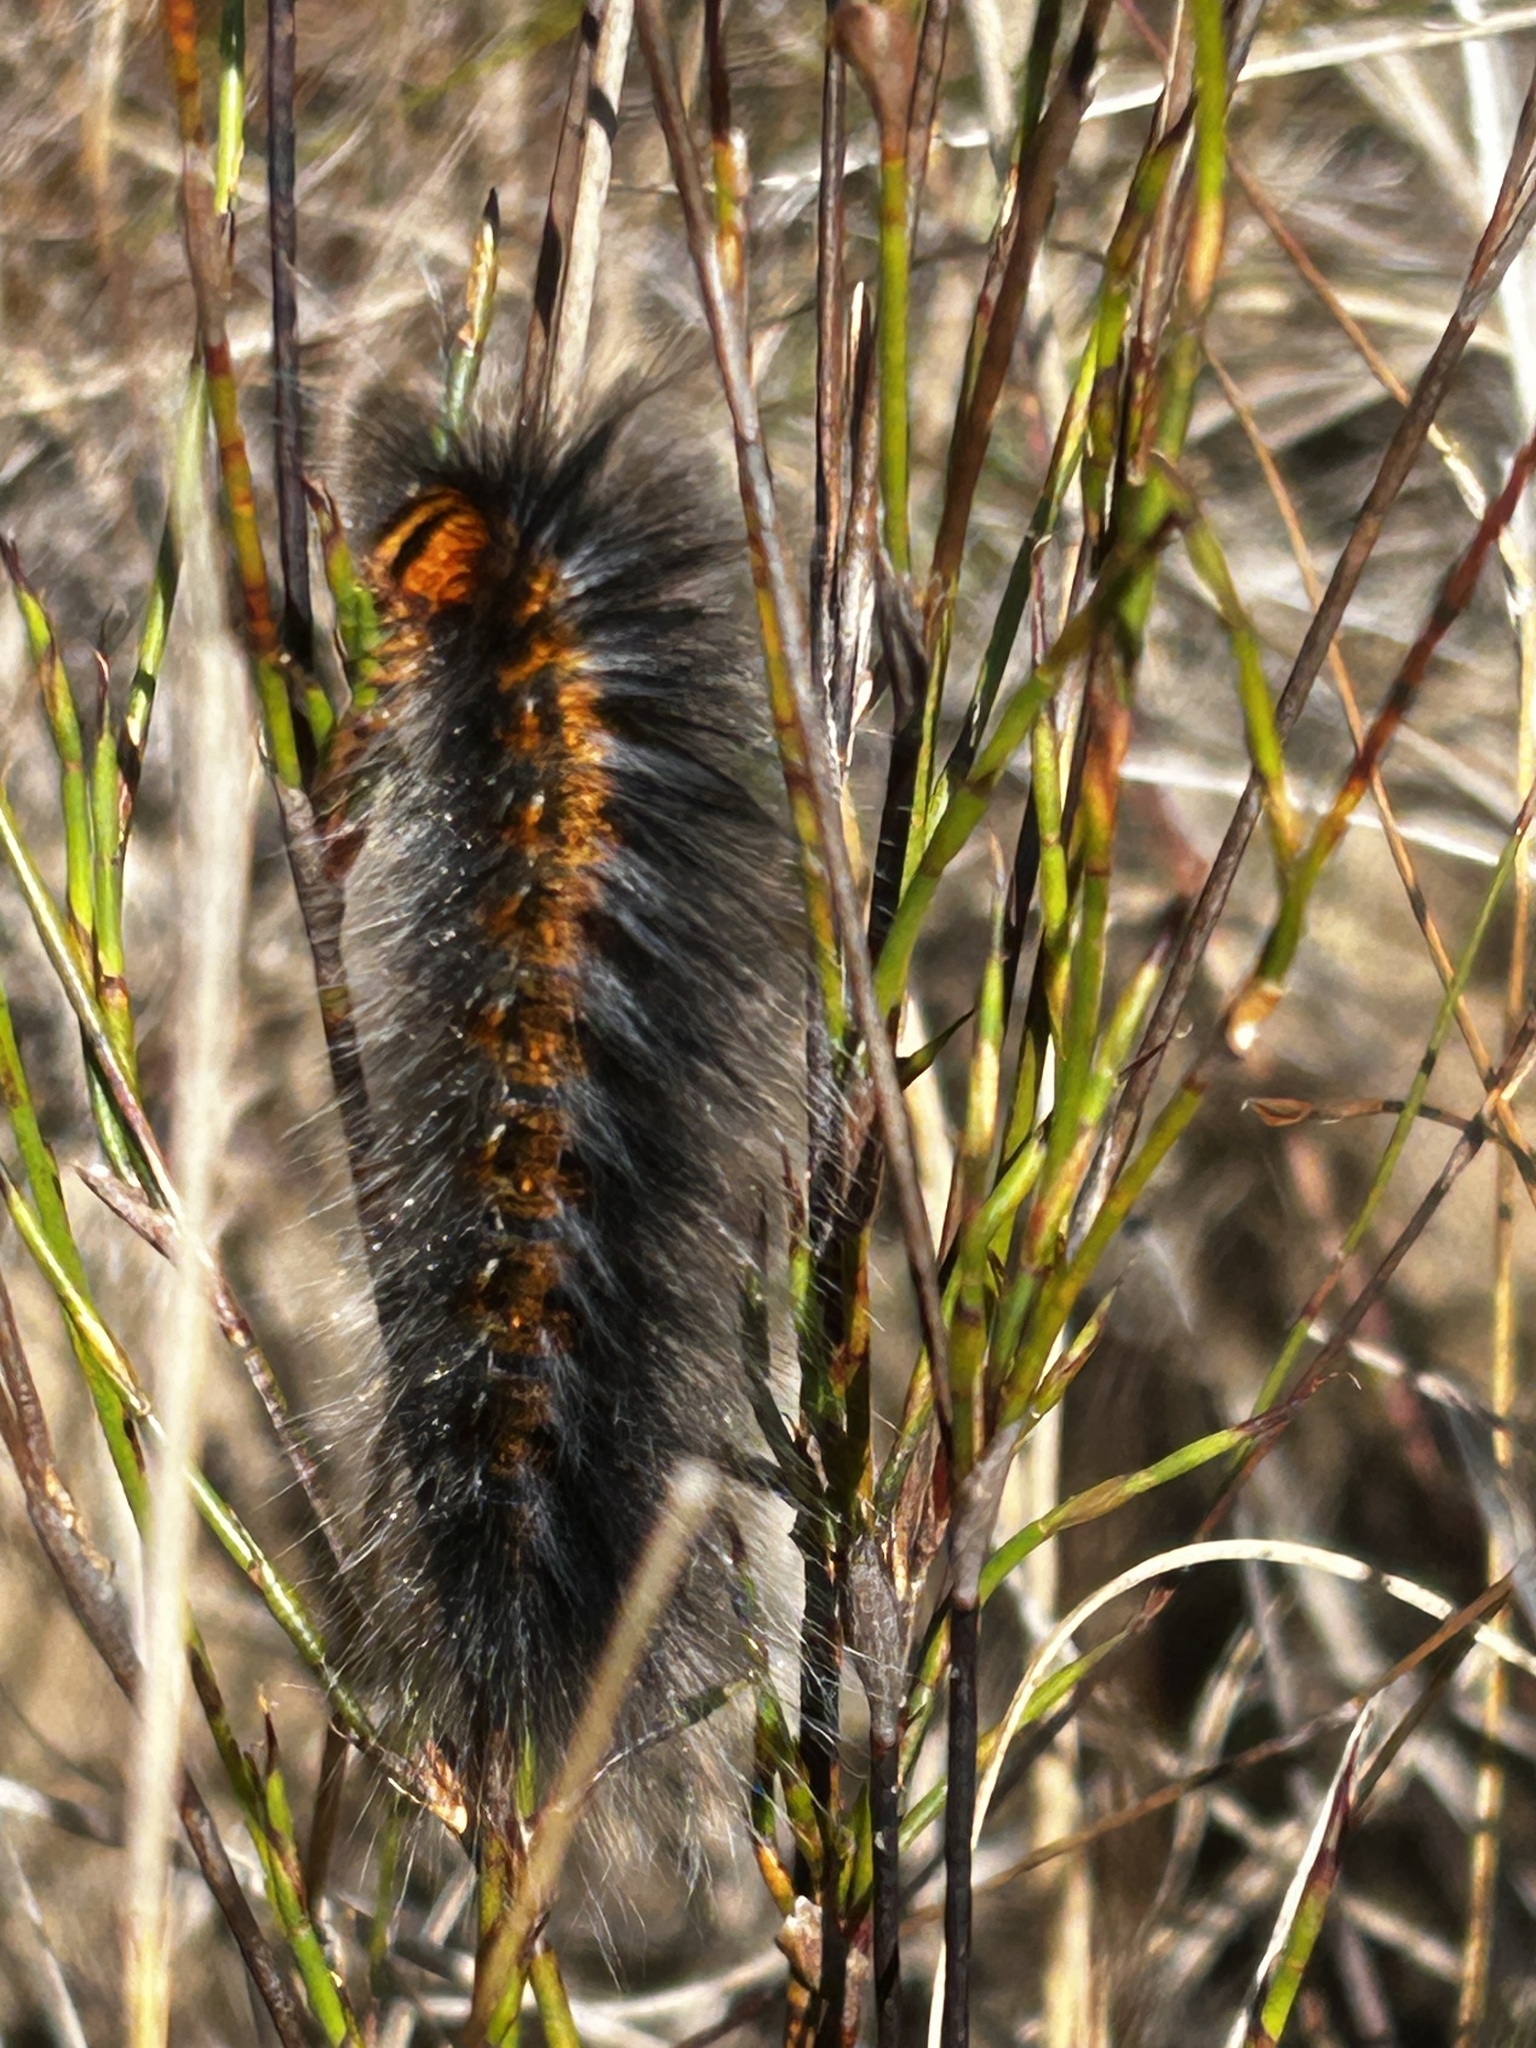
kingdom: Animalia
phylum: Arthropoda
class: Insecta
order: Lepidoptera
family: Lasiocampidae
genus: Mesocelis
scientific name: Mesocelis monticola
